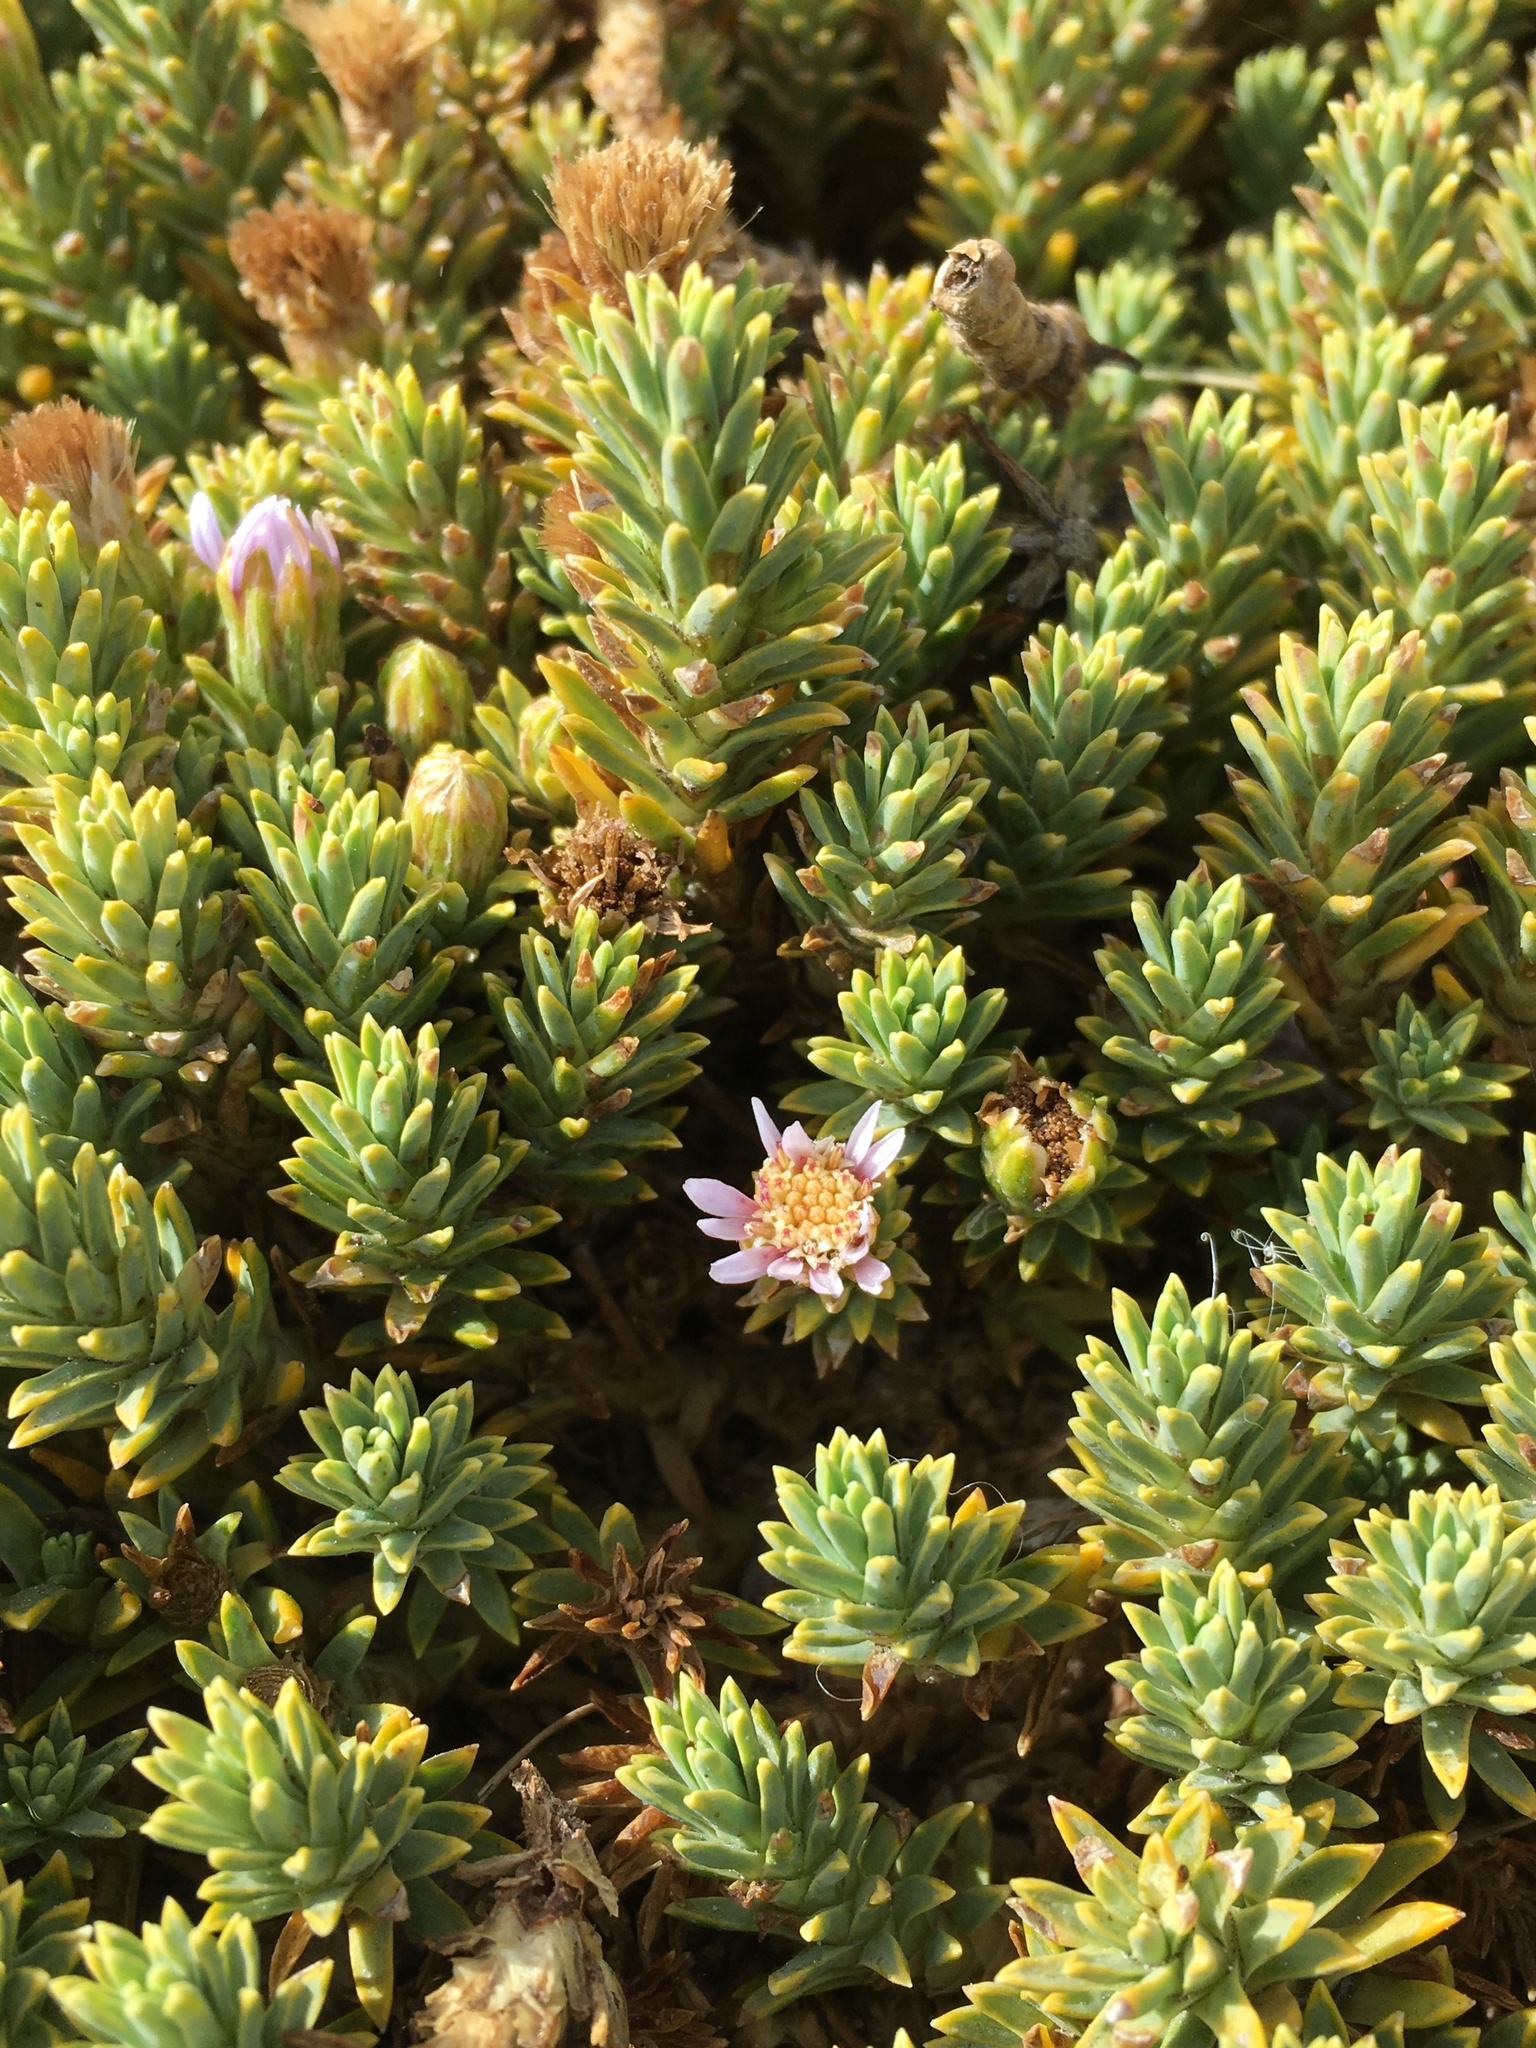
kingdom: Plantae
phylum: Tracheophyta
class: Magnoliopsida
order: Asterales
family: Asteraceae
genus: Werneria
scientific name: Werneria weddellii
